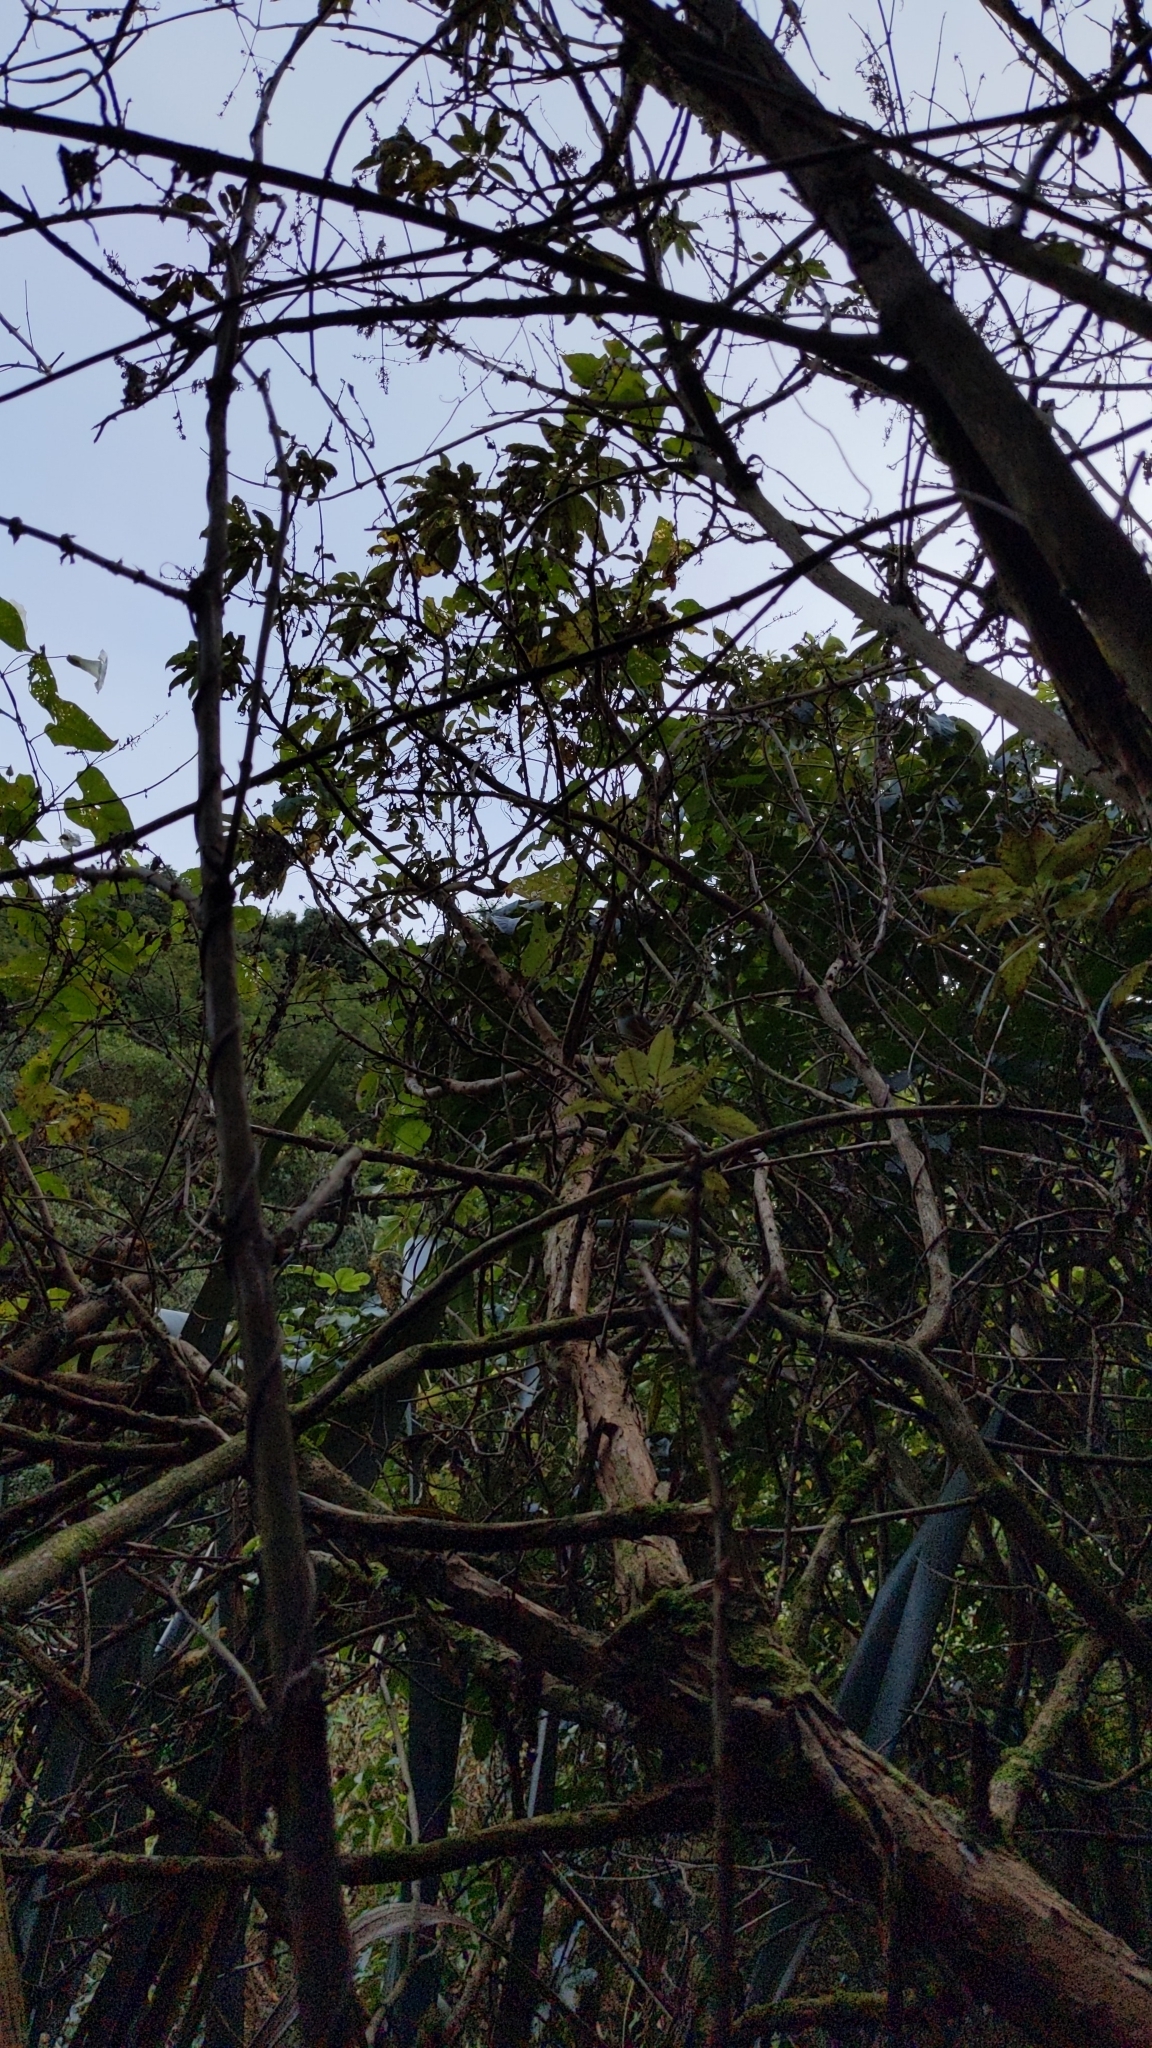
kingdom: Plantae
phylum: Tracheophyta
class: Magnoliopsida
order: Myrtales
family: Onagraceae
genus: Fuchsia
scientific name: Fuchsia excorticata
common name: Tree fuchsia
